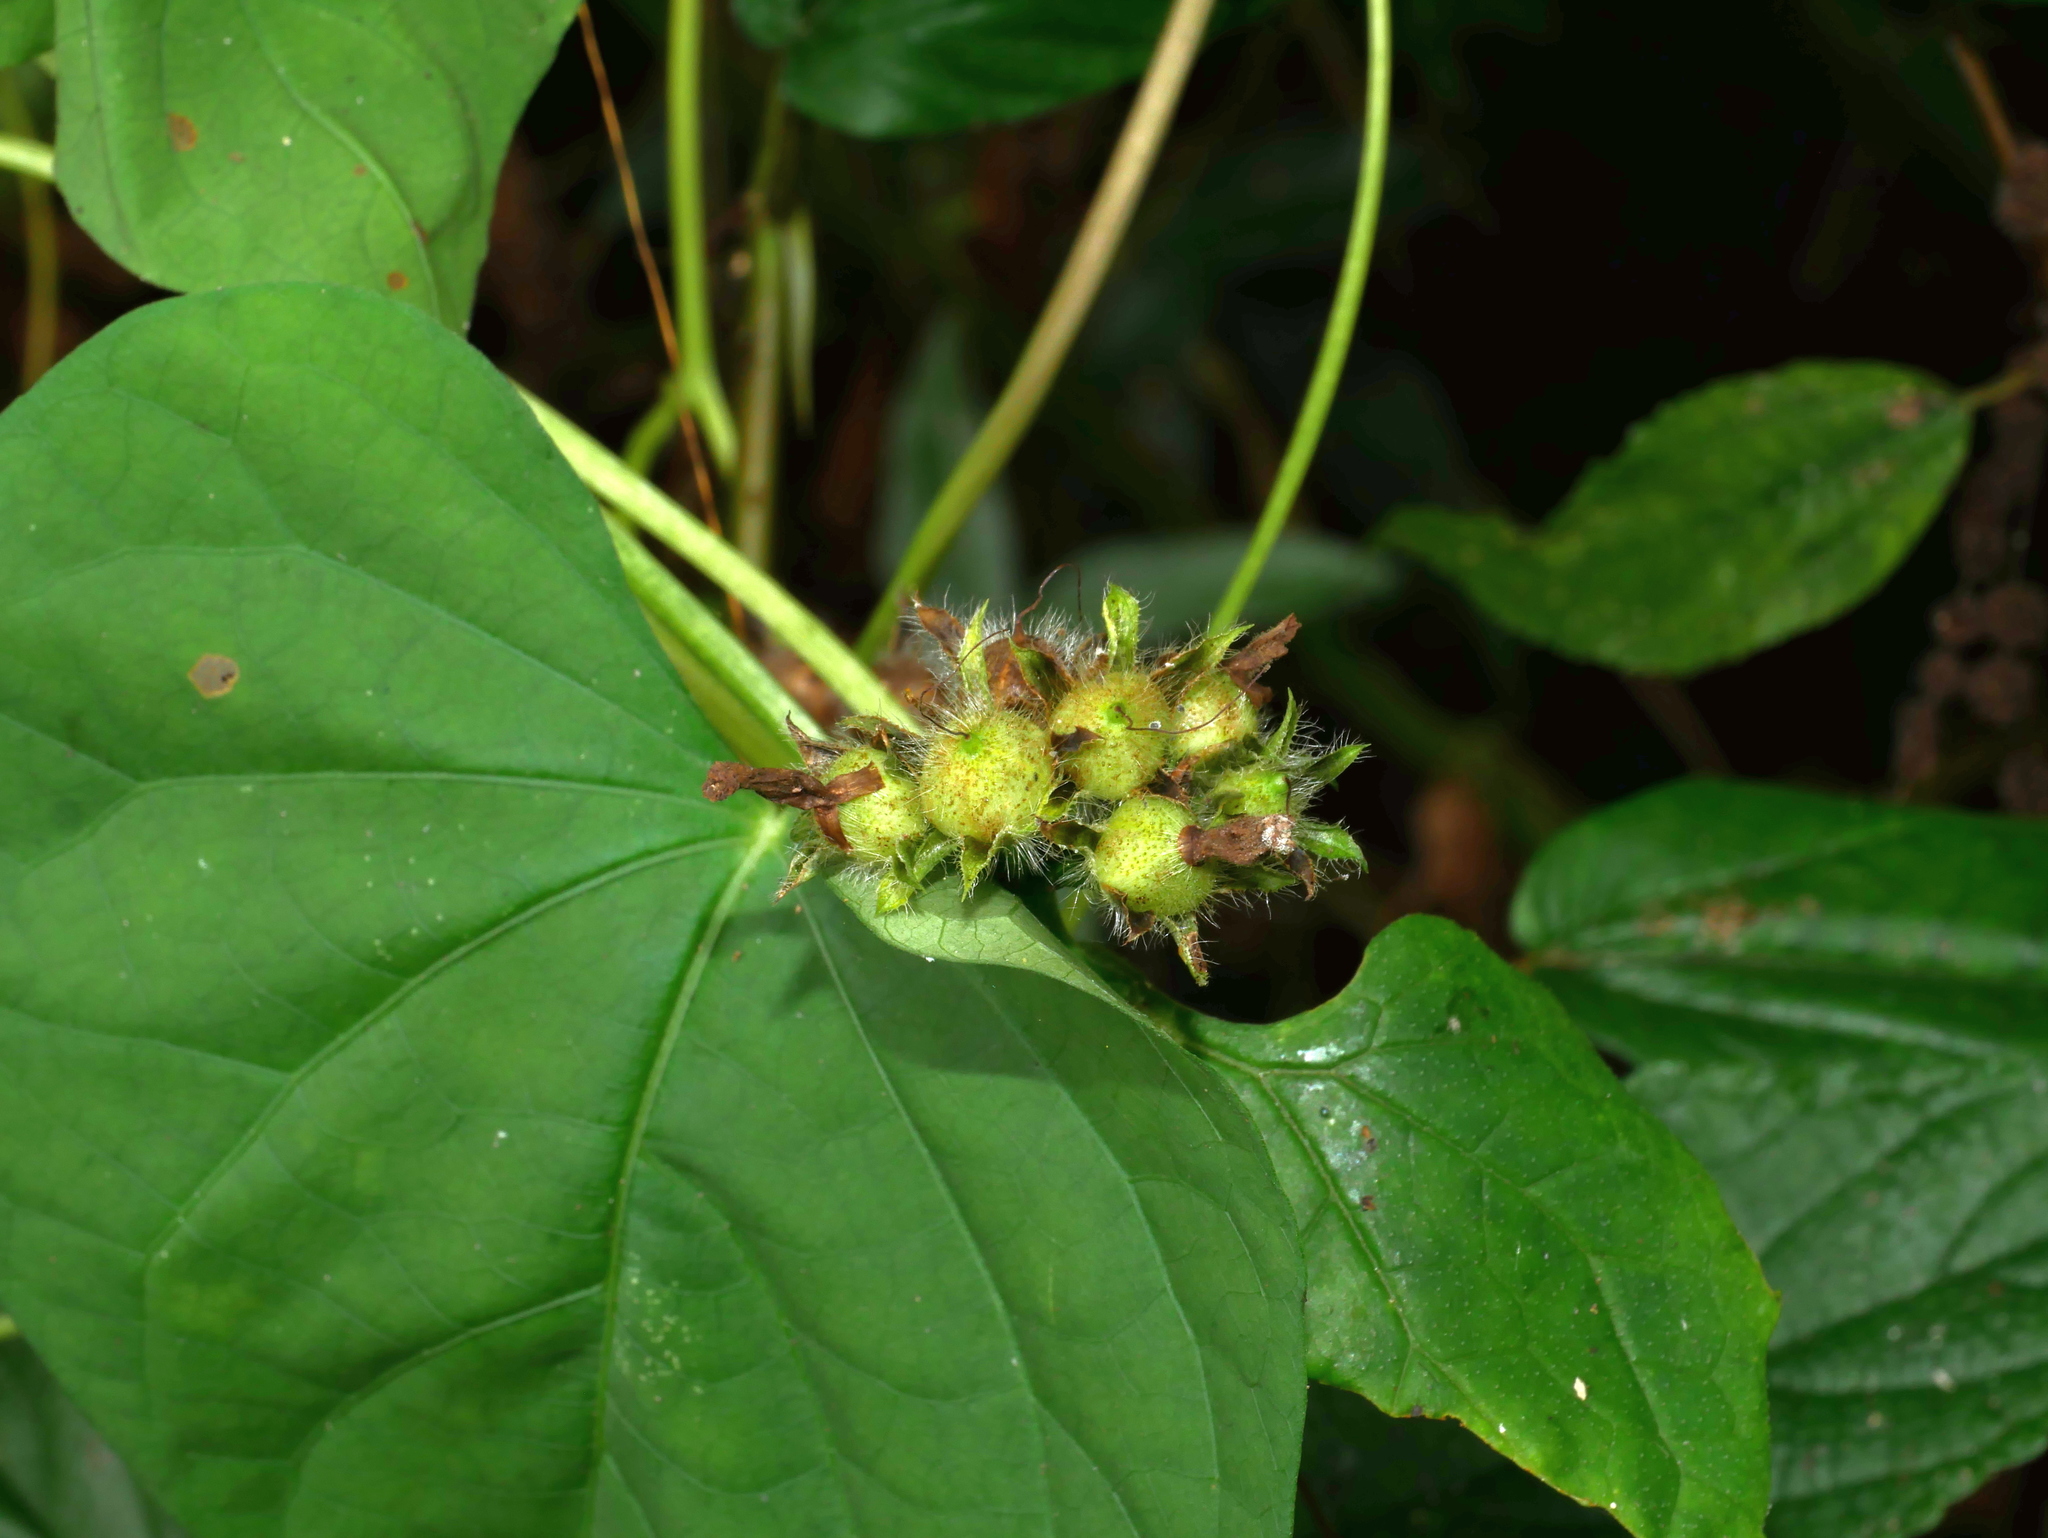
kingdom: Plantae
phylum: Tracheophyta
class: Magnoliopsida
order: Solanales
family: Convolvulaceae
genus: Ipomoea
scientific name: Ipomoea triloba
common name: Little-bell
